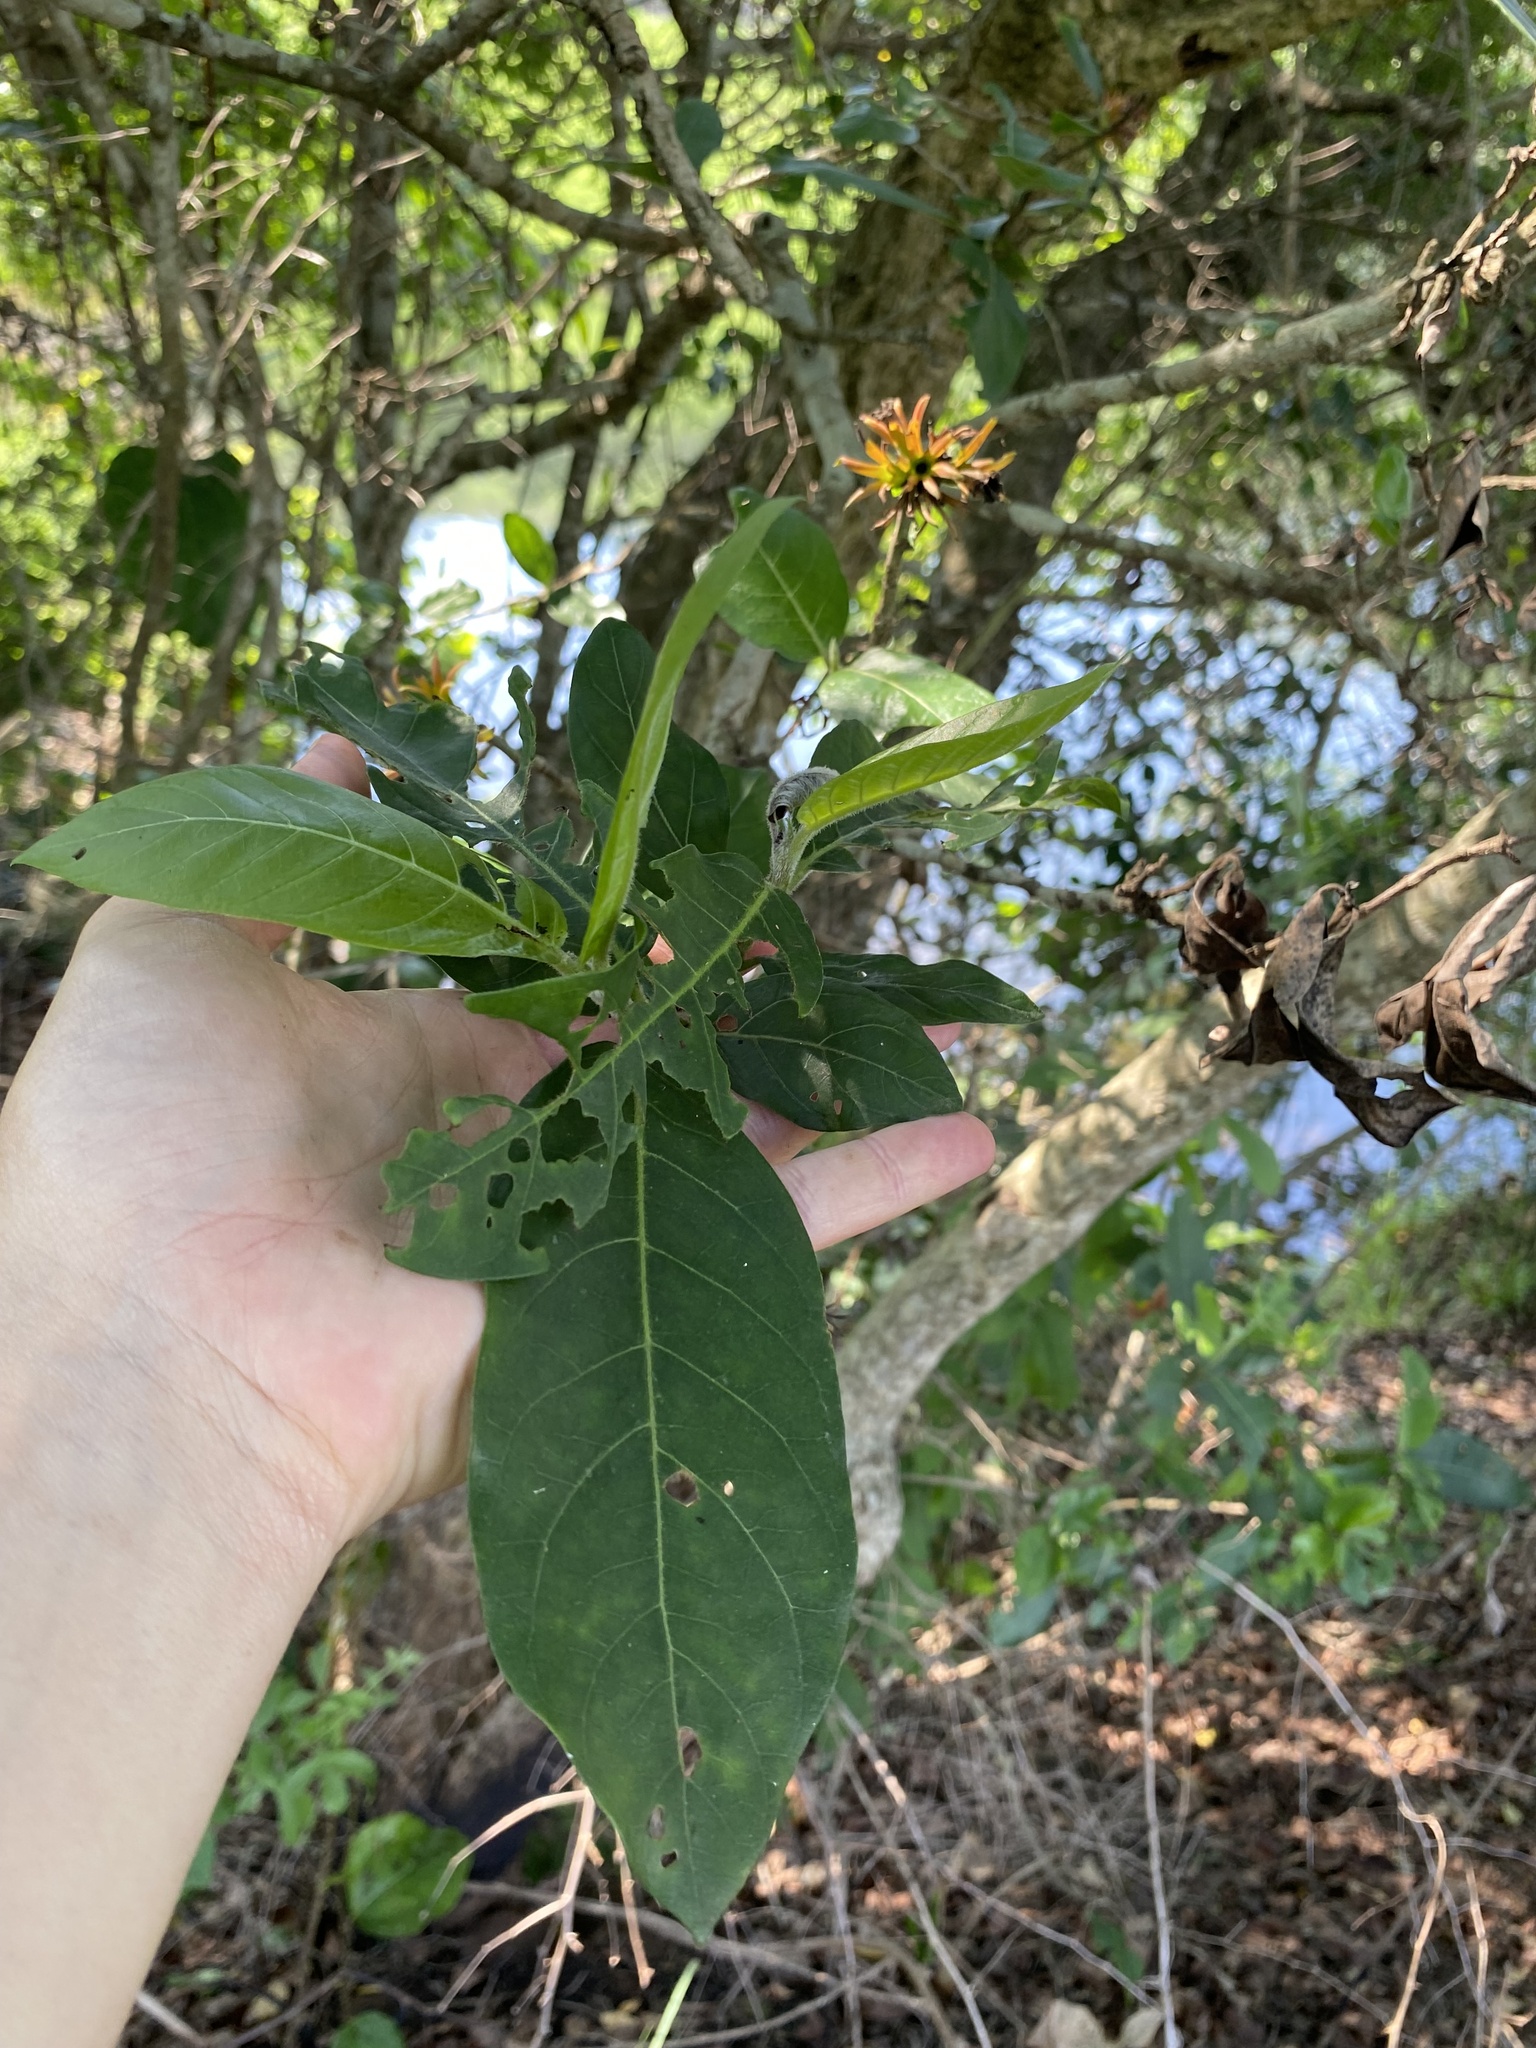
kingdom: Plantae
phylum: Tracheophyta
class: Magnoliopsida
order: Gentianales
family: Rubiaceae
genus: Burchellia
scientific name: Burchellia bubalina
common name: Wild pomegranate
